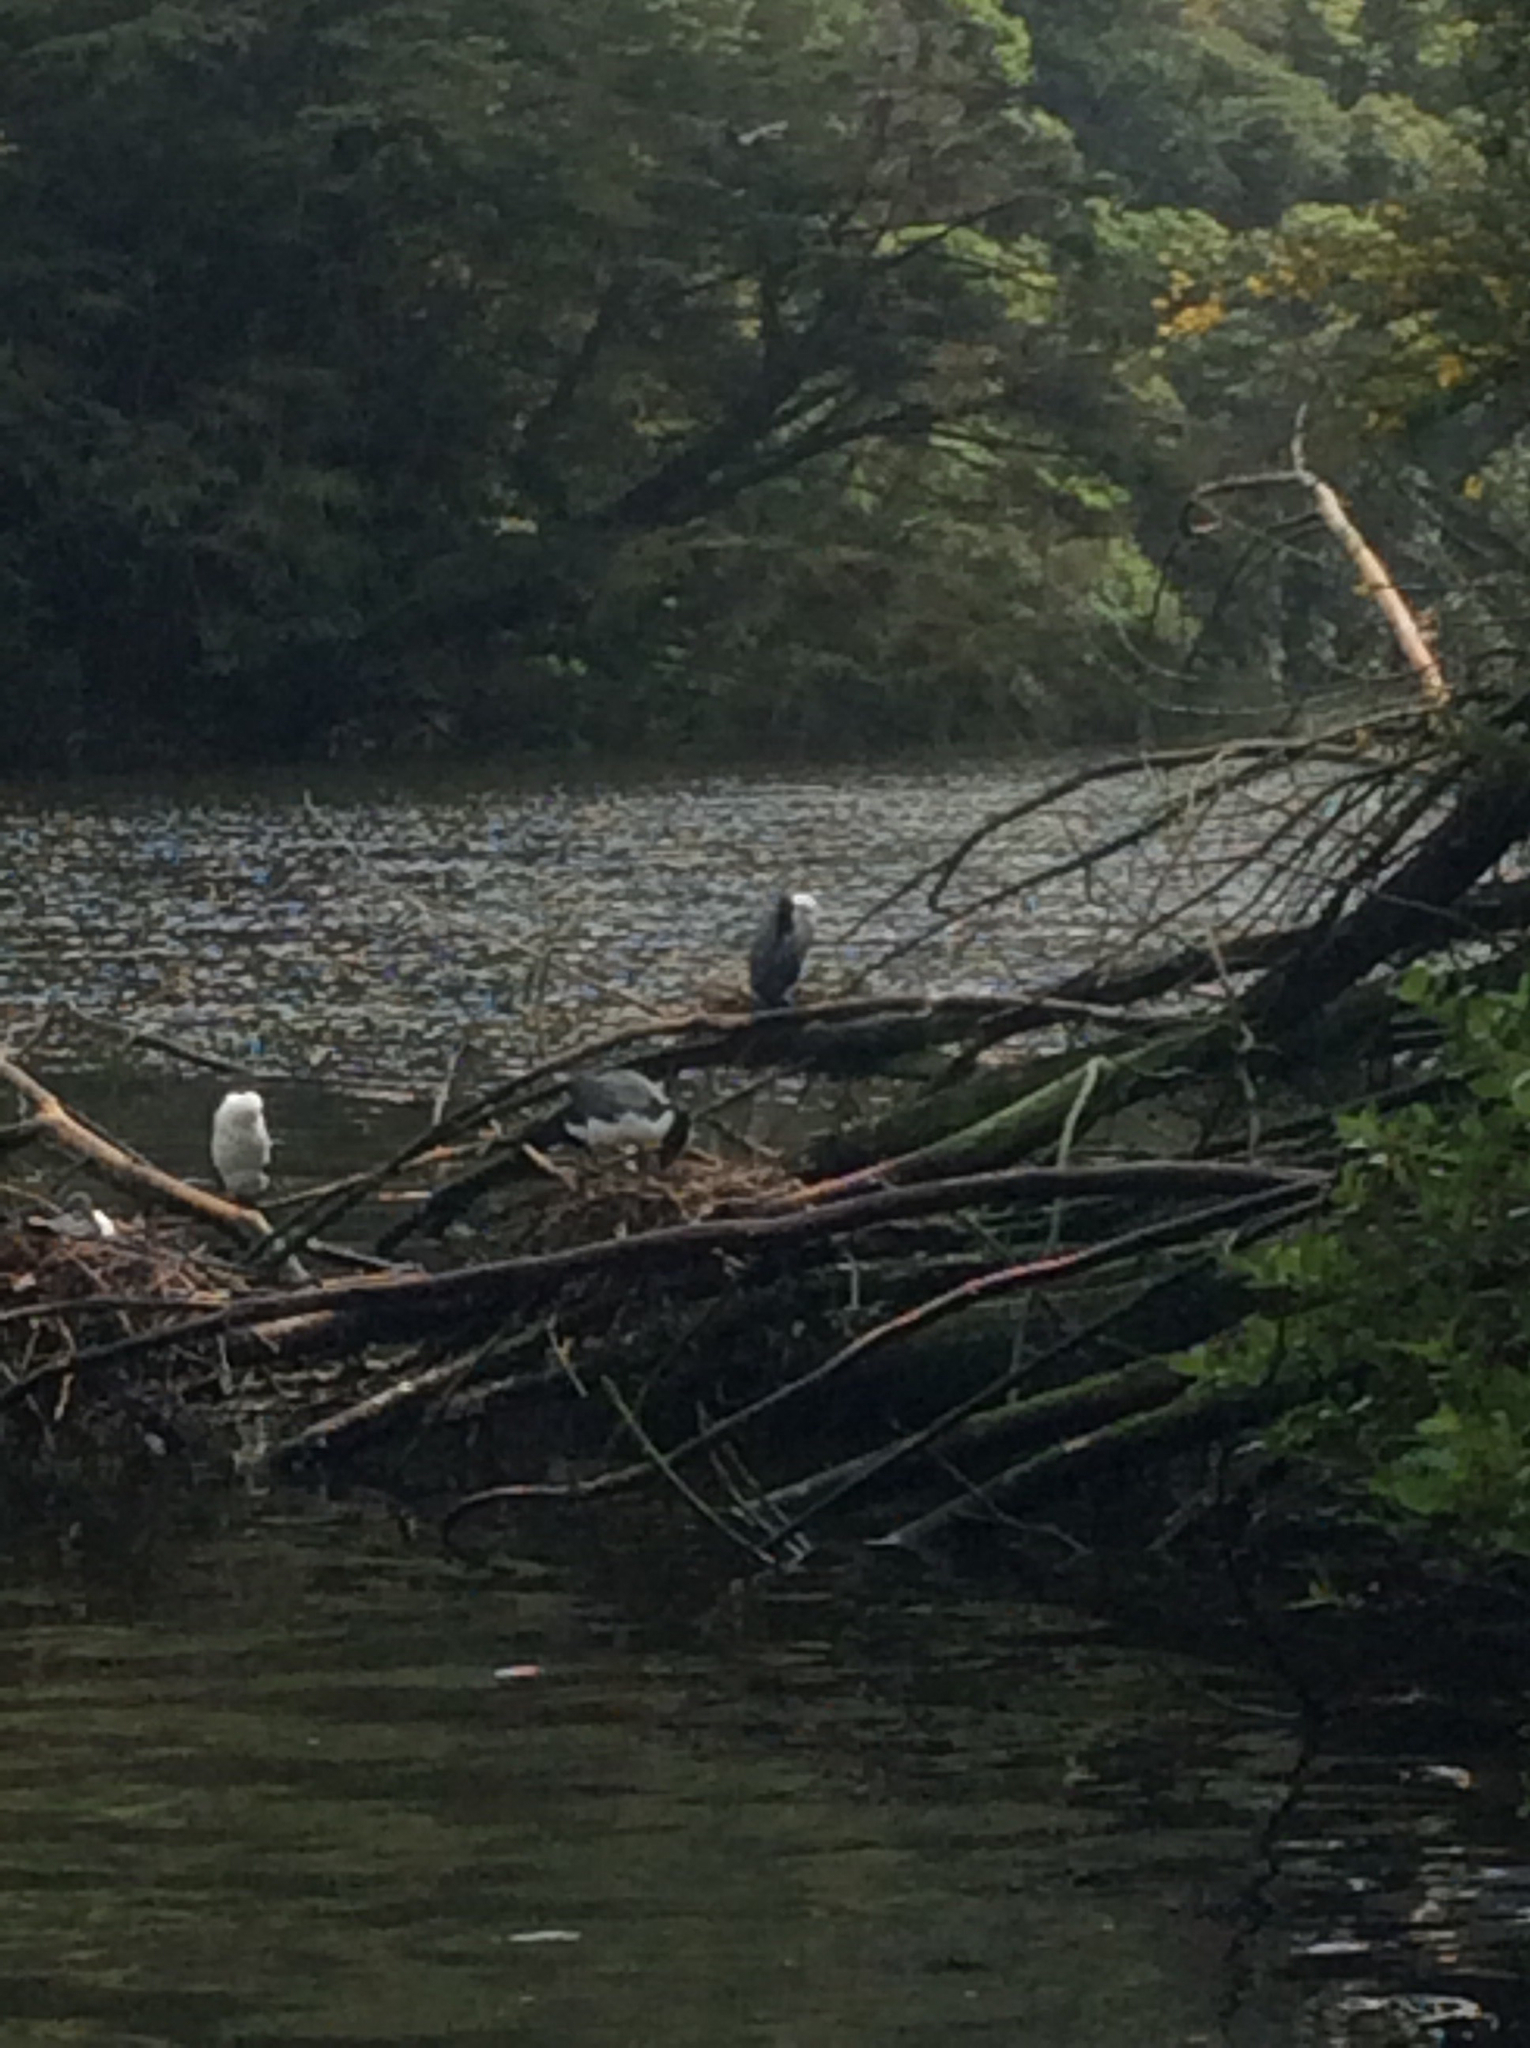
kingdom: Animalia
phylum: Chordata
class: Aves
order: Suliformes
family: Phalacrocoracidae
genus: Phalacrocorax
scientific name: Phalacrocorax varius
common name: Pied cormorant
